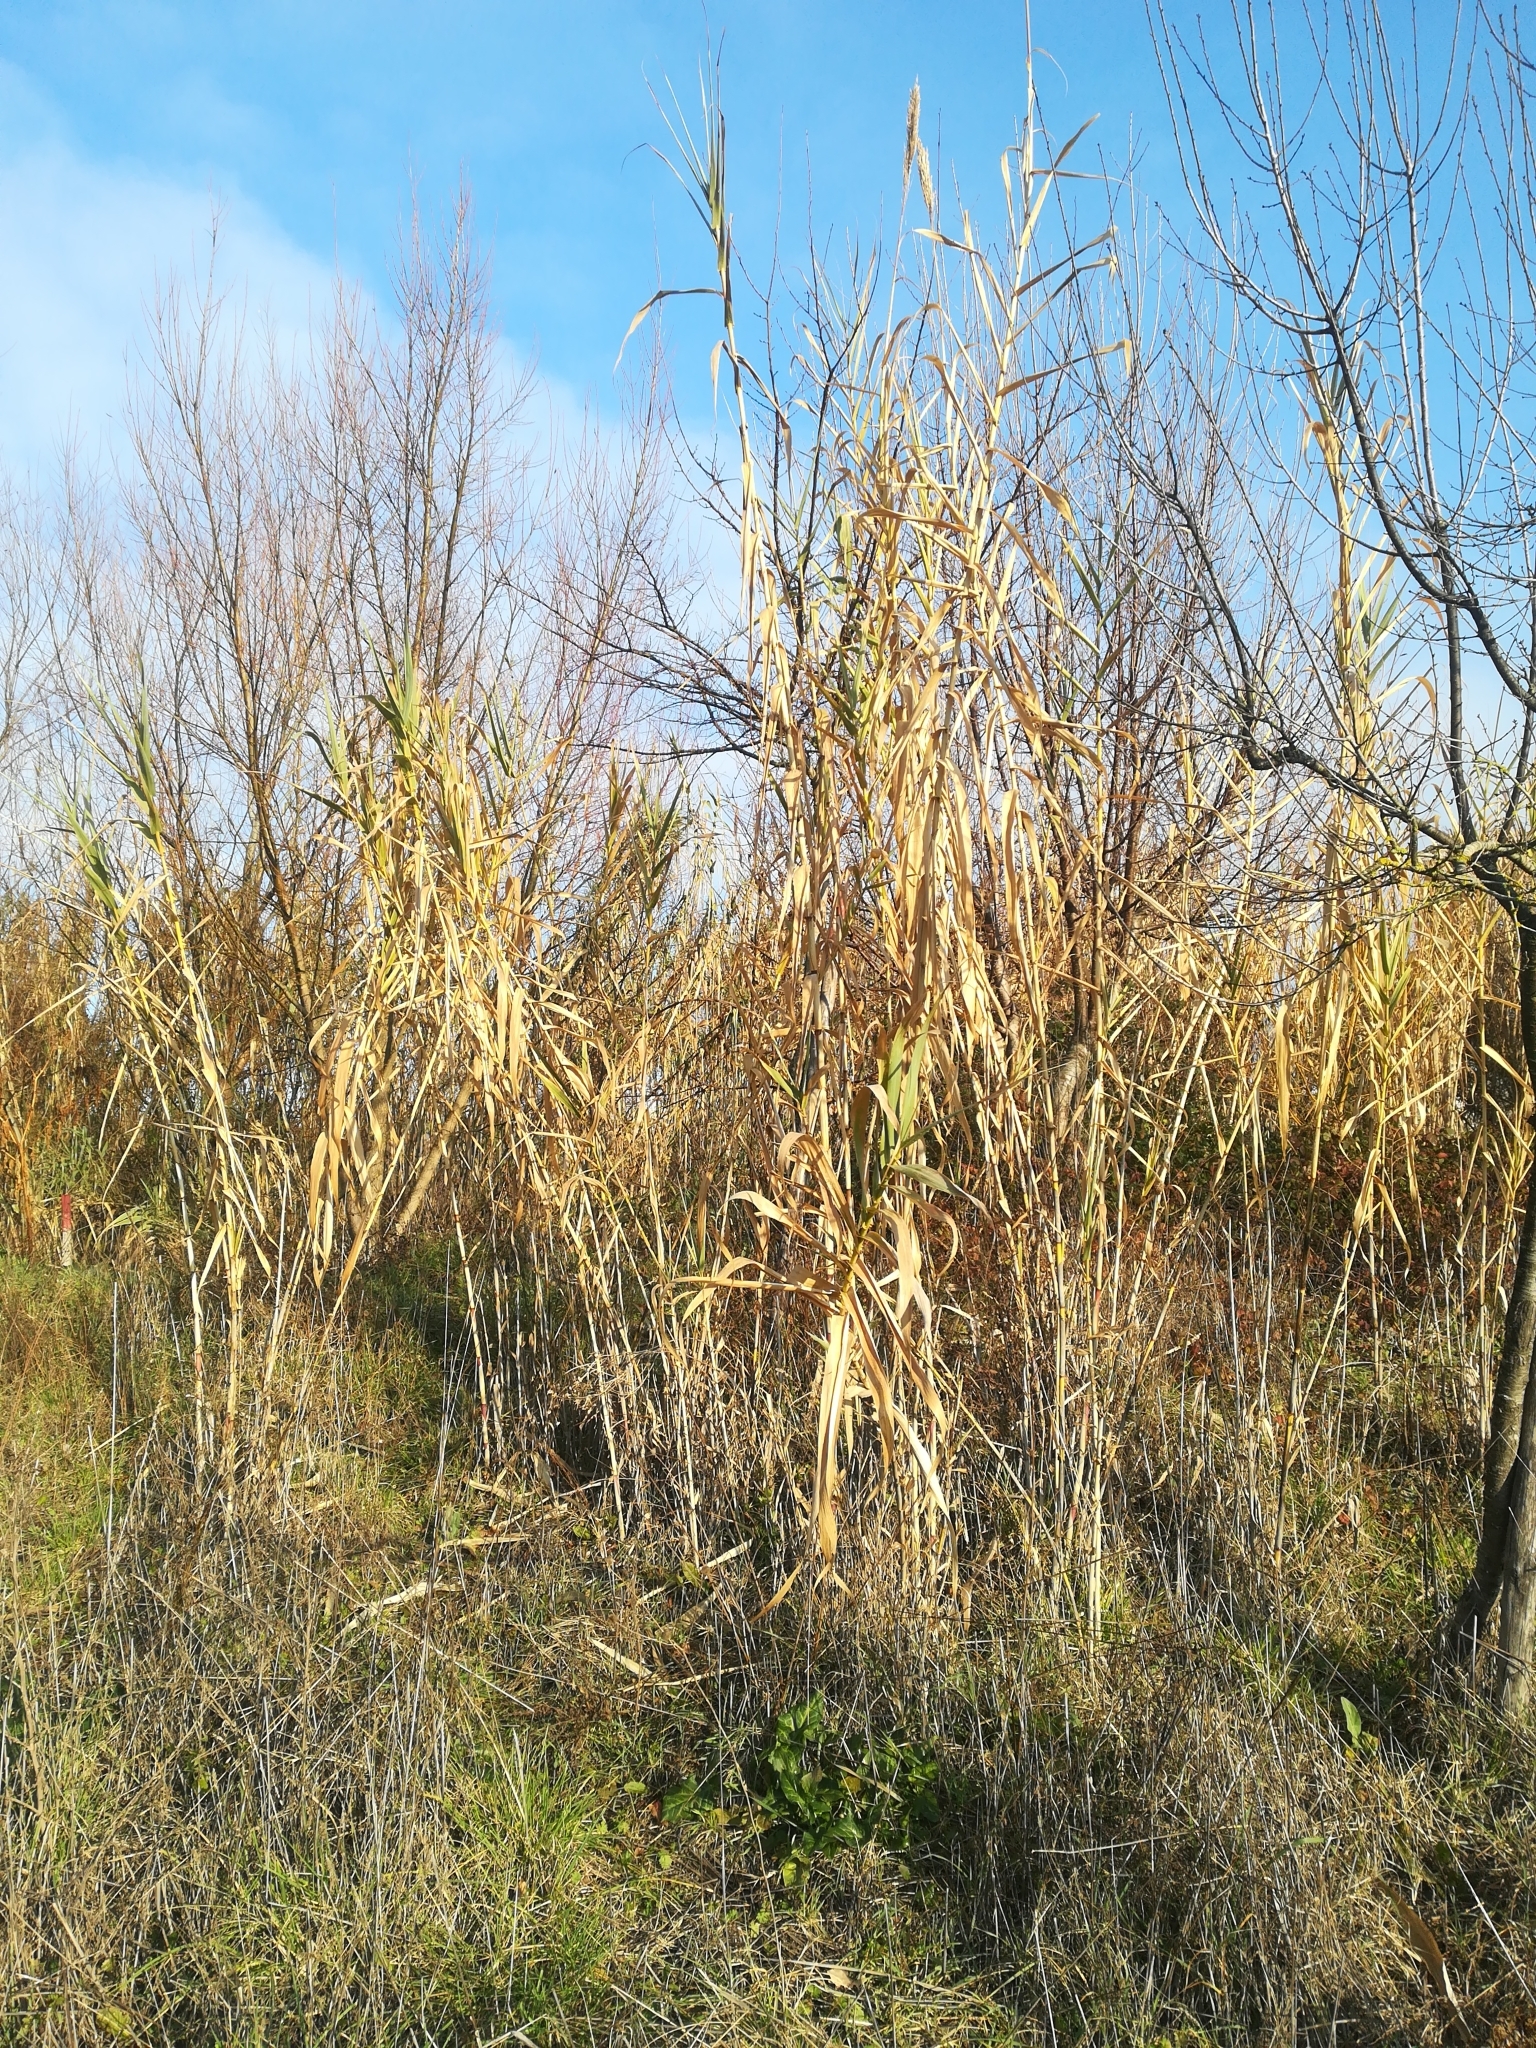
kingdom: Plantae
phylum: Tracheophyta
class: Liliopsida
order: Poales
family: Poaceae
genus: Arundo
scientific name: Arundo donax
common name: Giant reed
